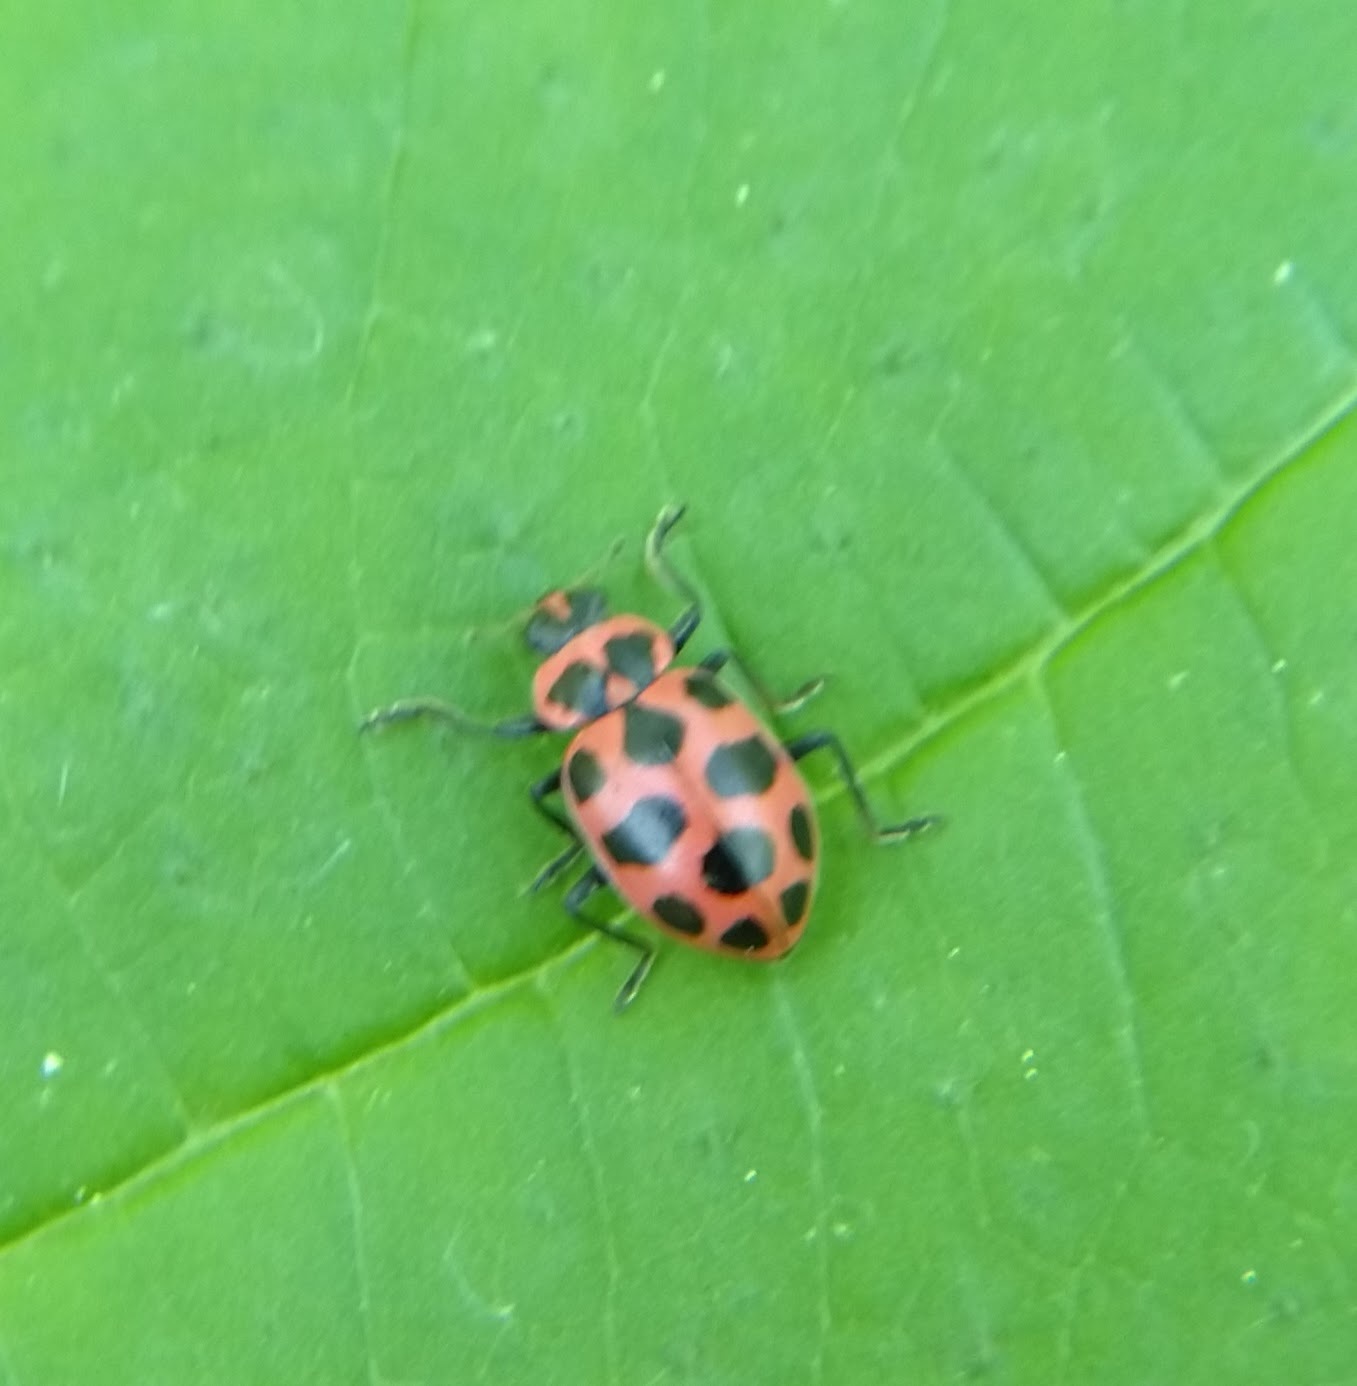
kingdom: Animalia
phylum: Arthropoda
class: Insecta
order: Coleoptera
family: Coccinellidae
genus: Coleomegilla
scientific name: Coleomegilla maculata
